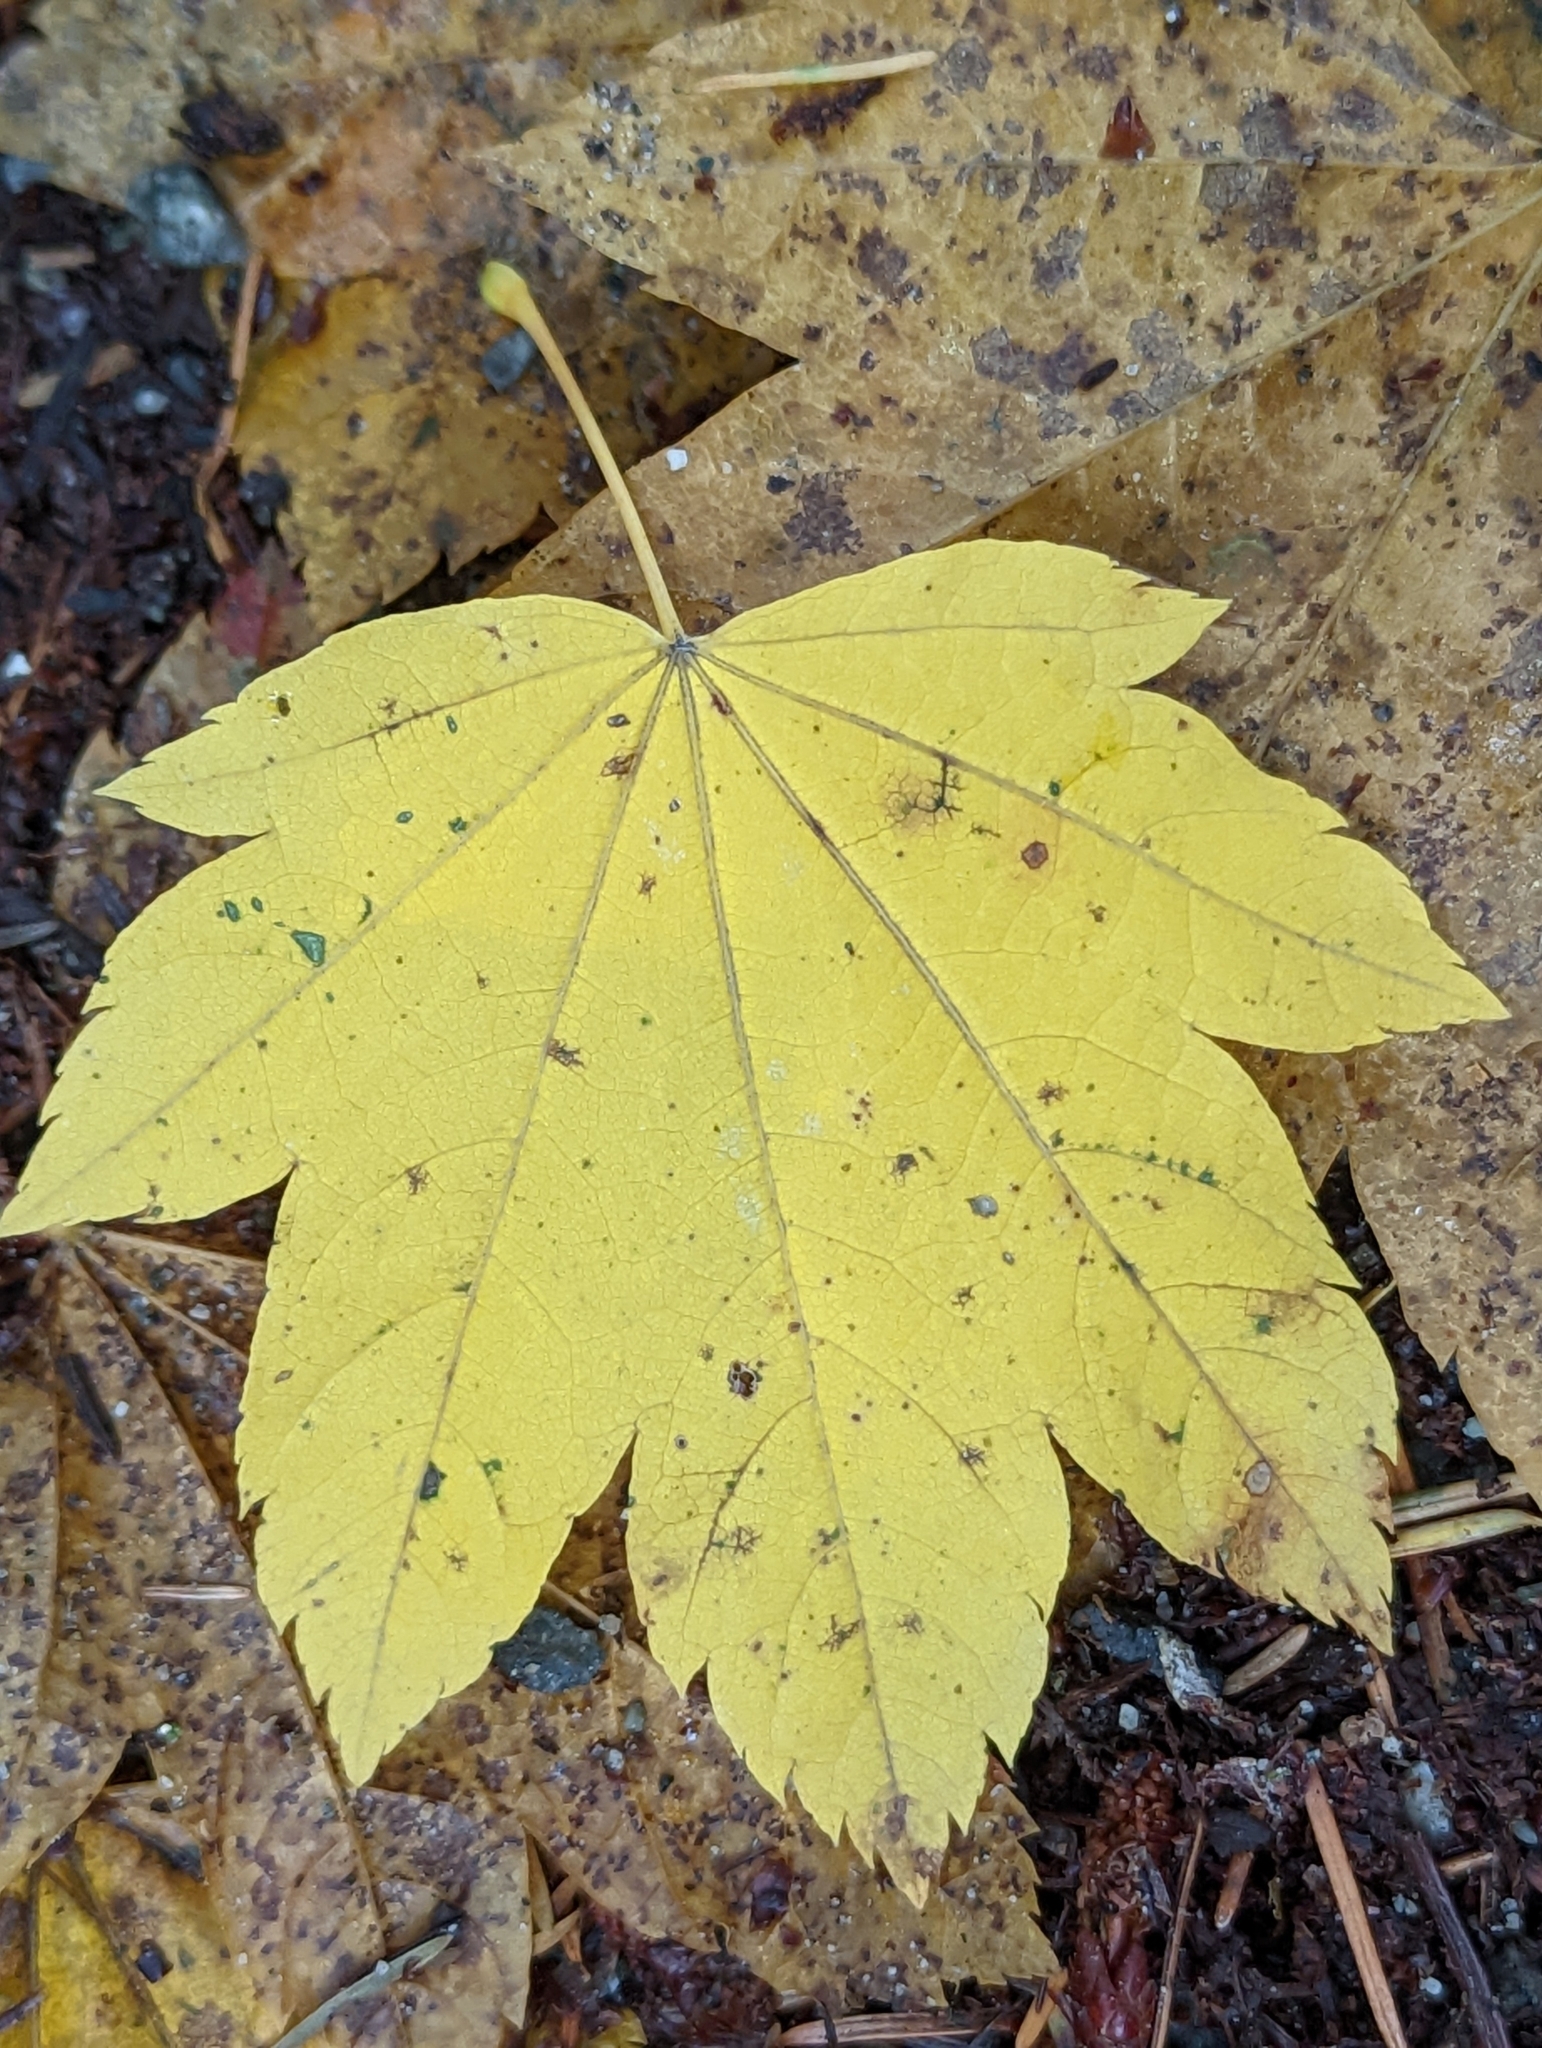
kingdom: Plantae
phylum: Tracheophyta
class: Magnoliopsida
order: Sapindales
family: Sapindaceae
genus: Acer
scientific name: Acer circinatum
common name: Vine maple
